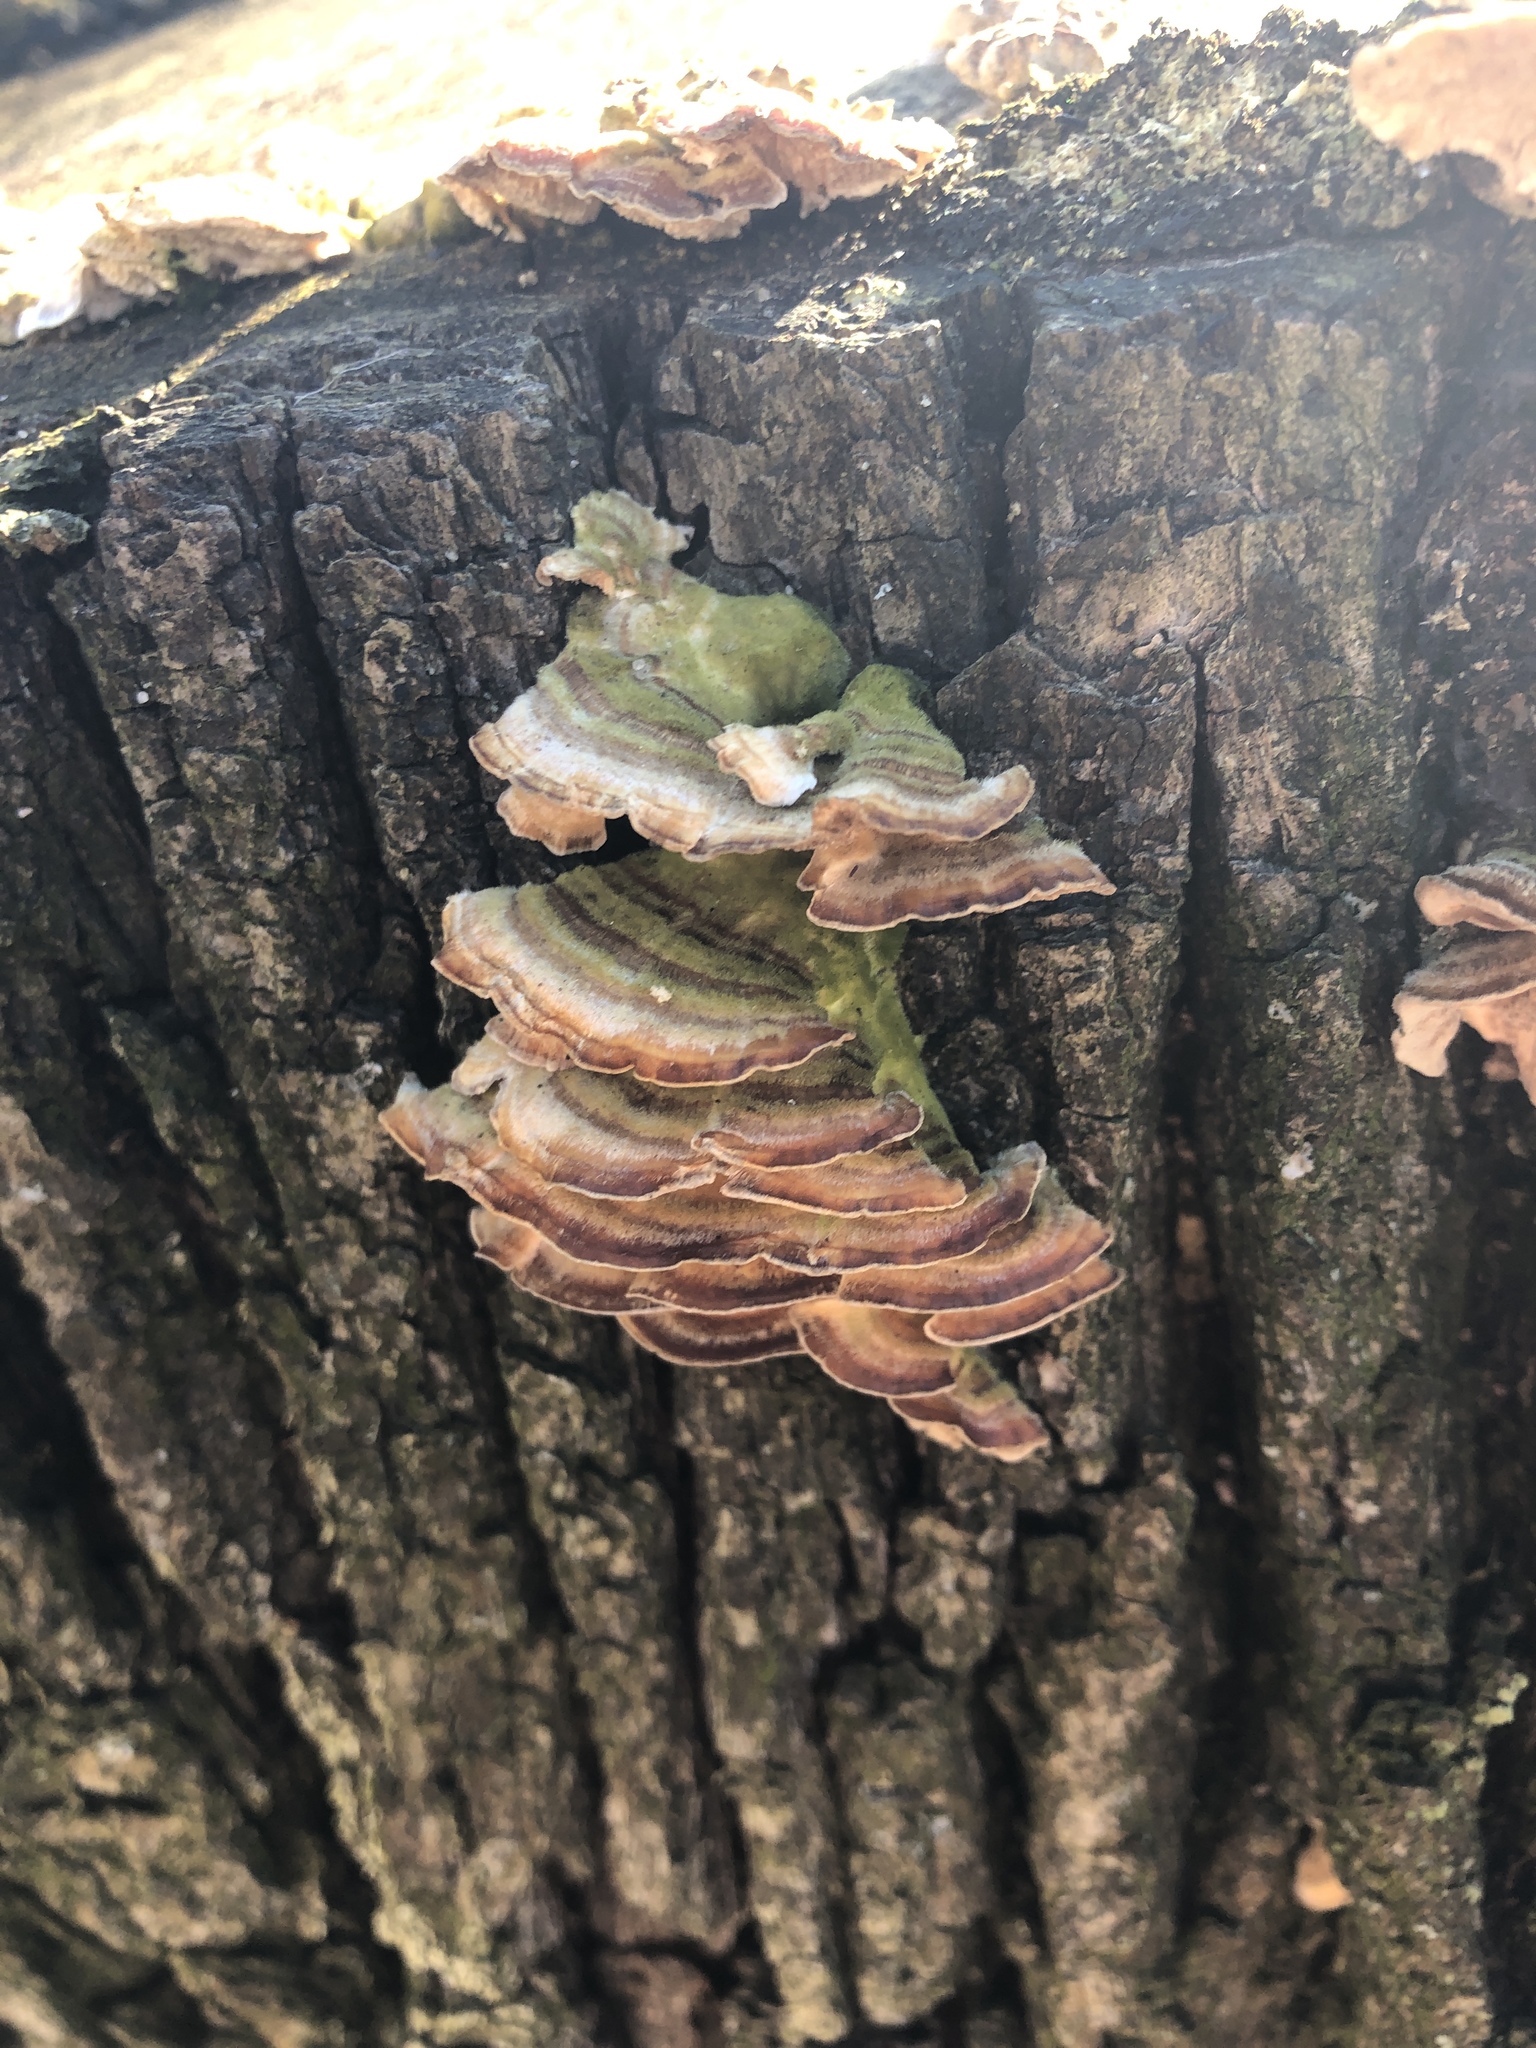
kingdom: Fungi
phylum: Basidiomycota
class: Agaricomycetes
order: Polyporales
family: Polyporaceae
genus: Trametes
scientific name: Trametes versicolor
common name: Turkeytail
